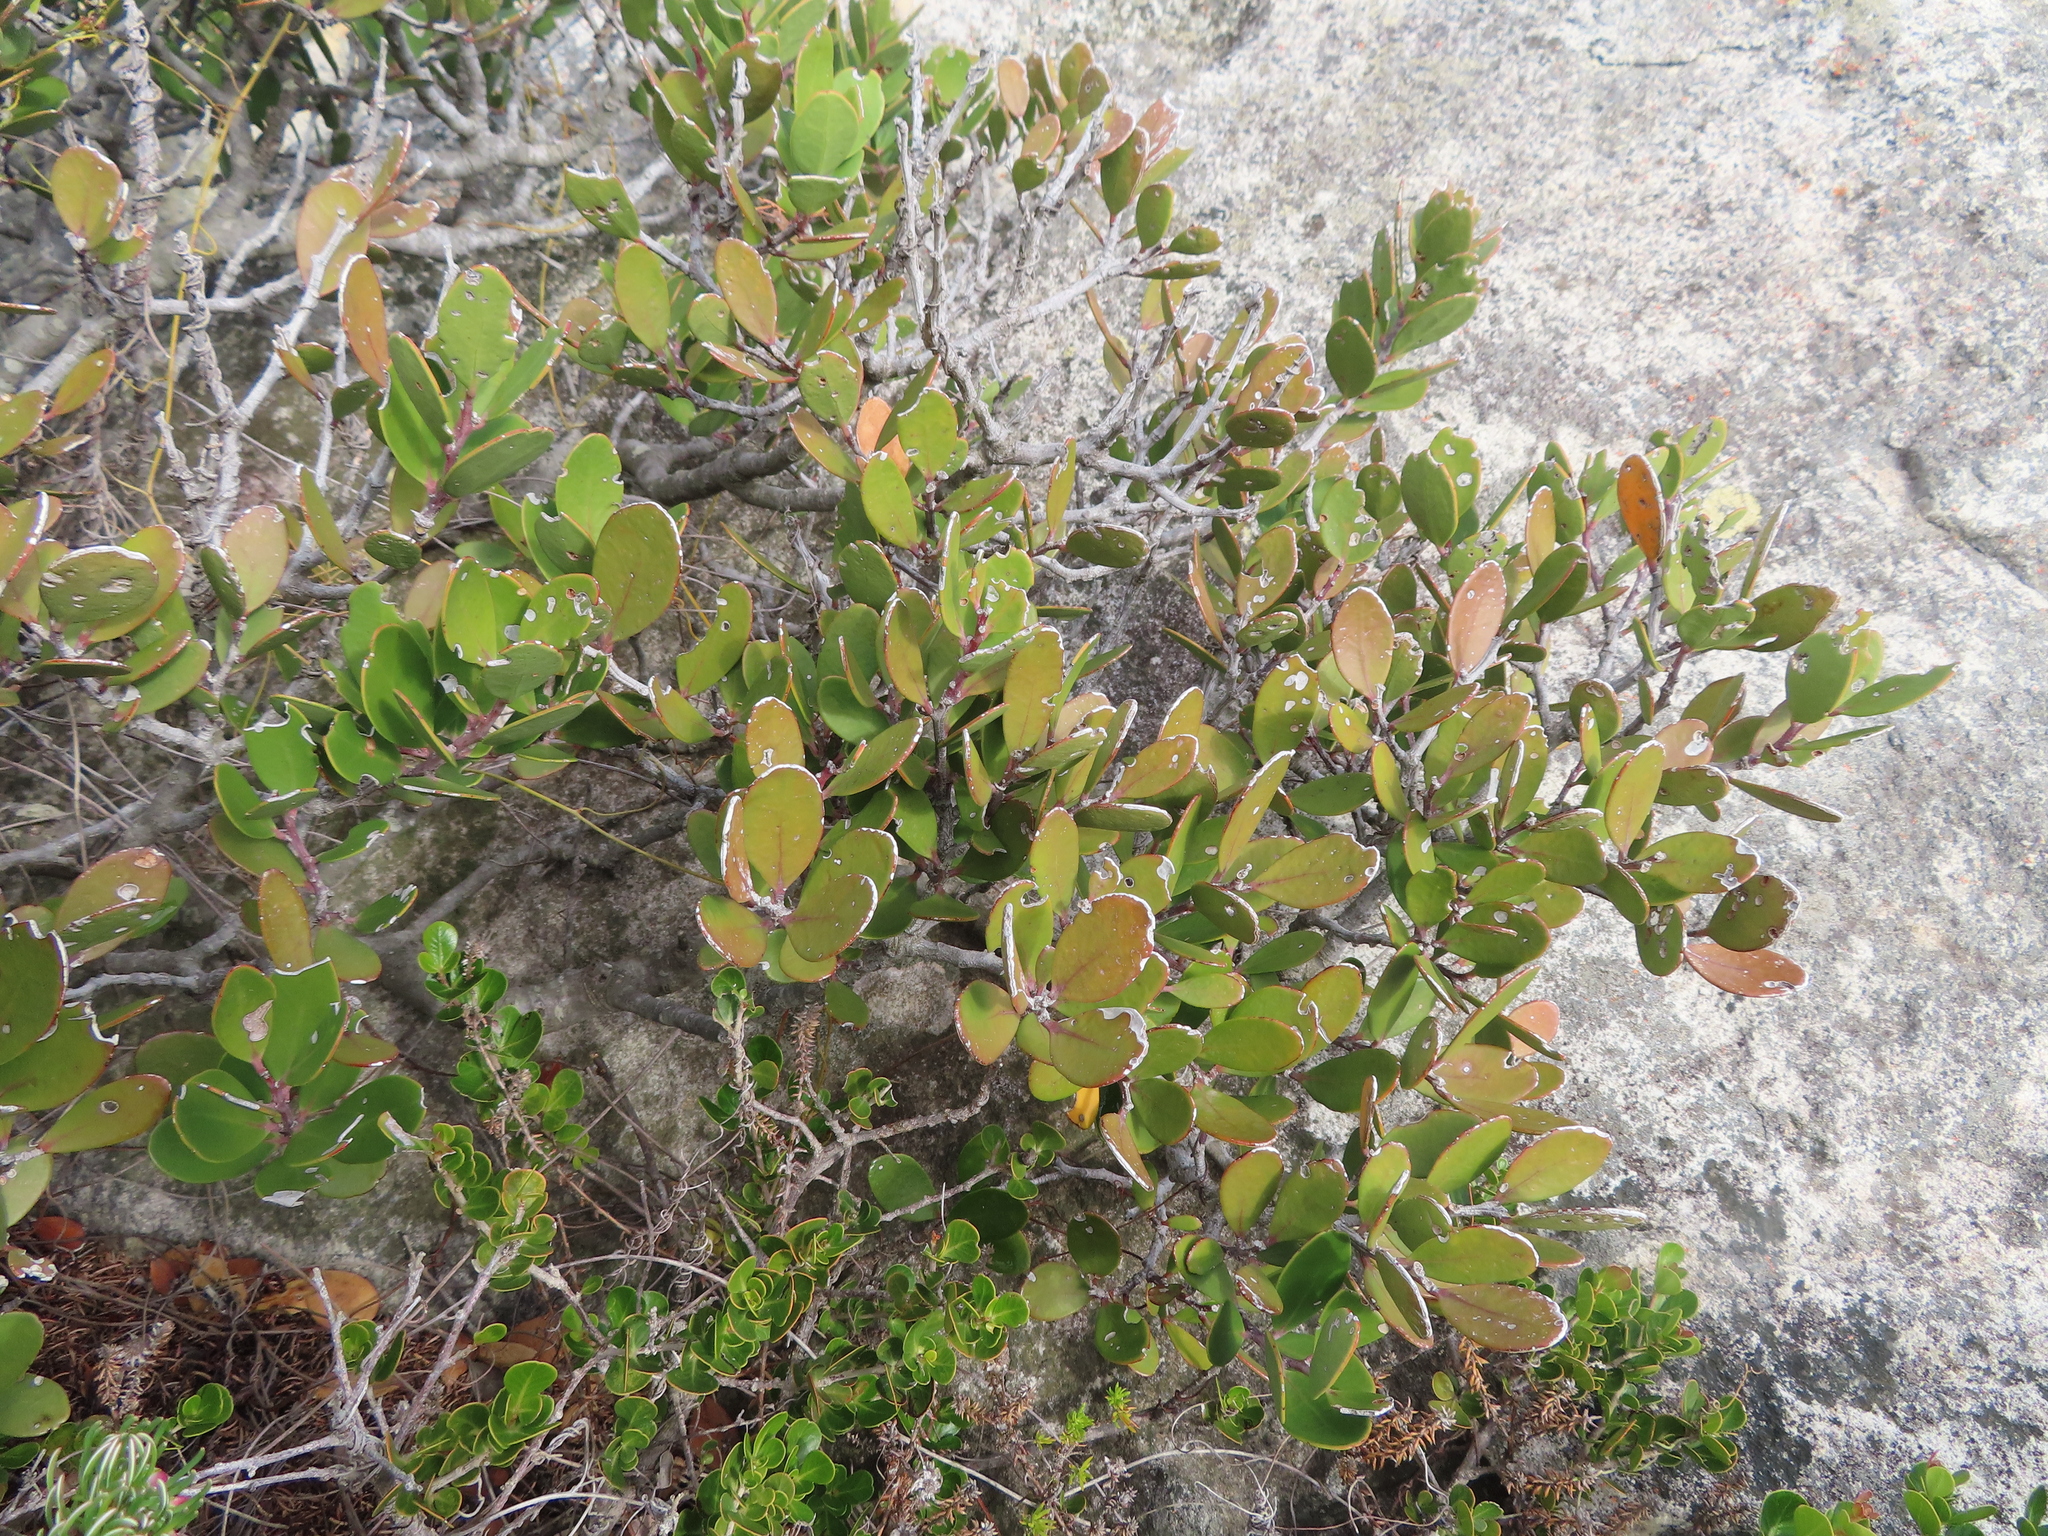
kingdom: Plantae
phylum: Tracheophyta
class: Magnoliopsida
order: Celastrales
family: Celastraceae
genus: Pterocelastrus
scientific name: Pterocelastrus tricuspidatus
